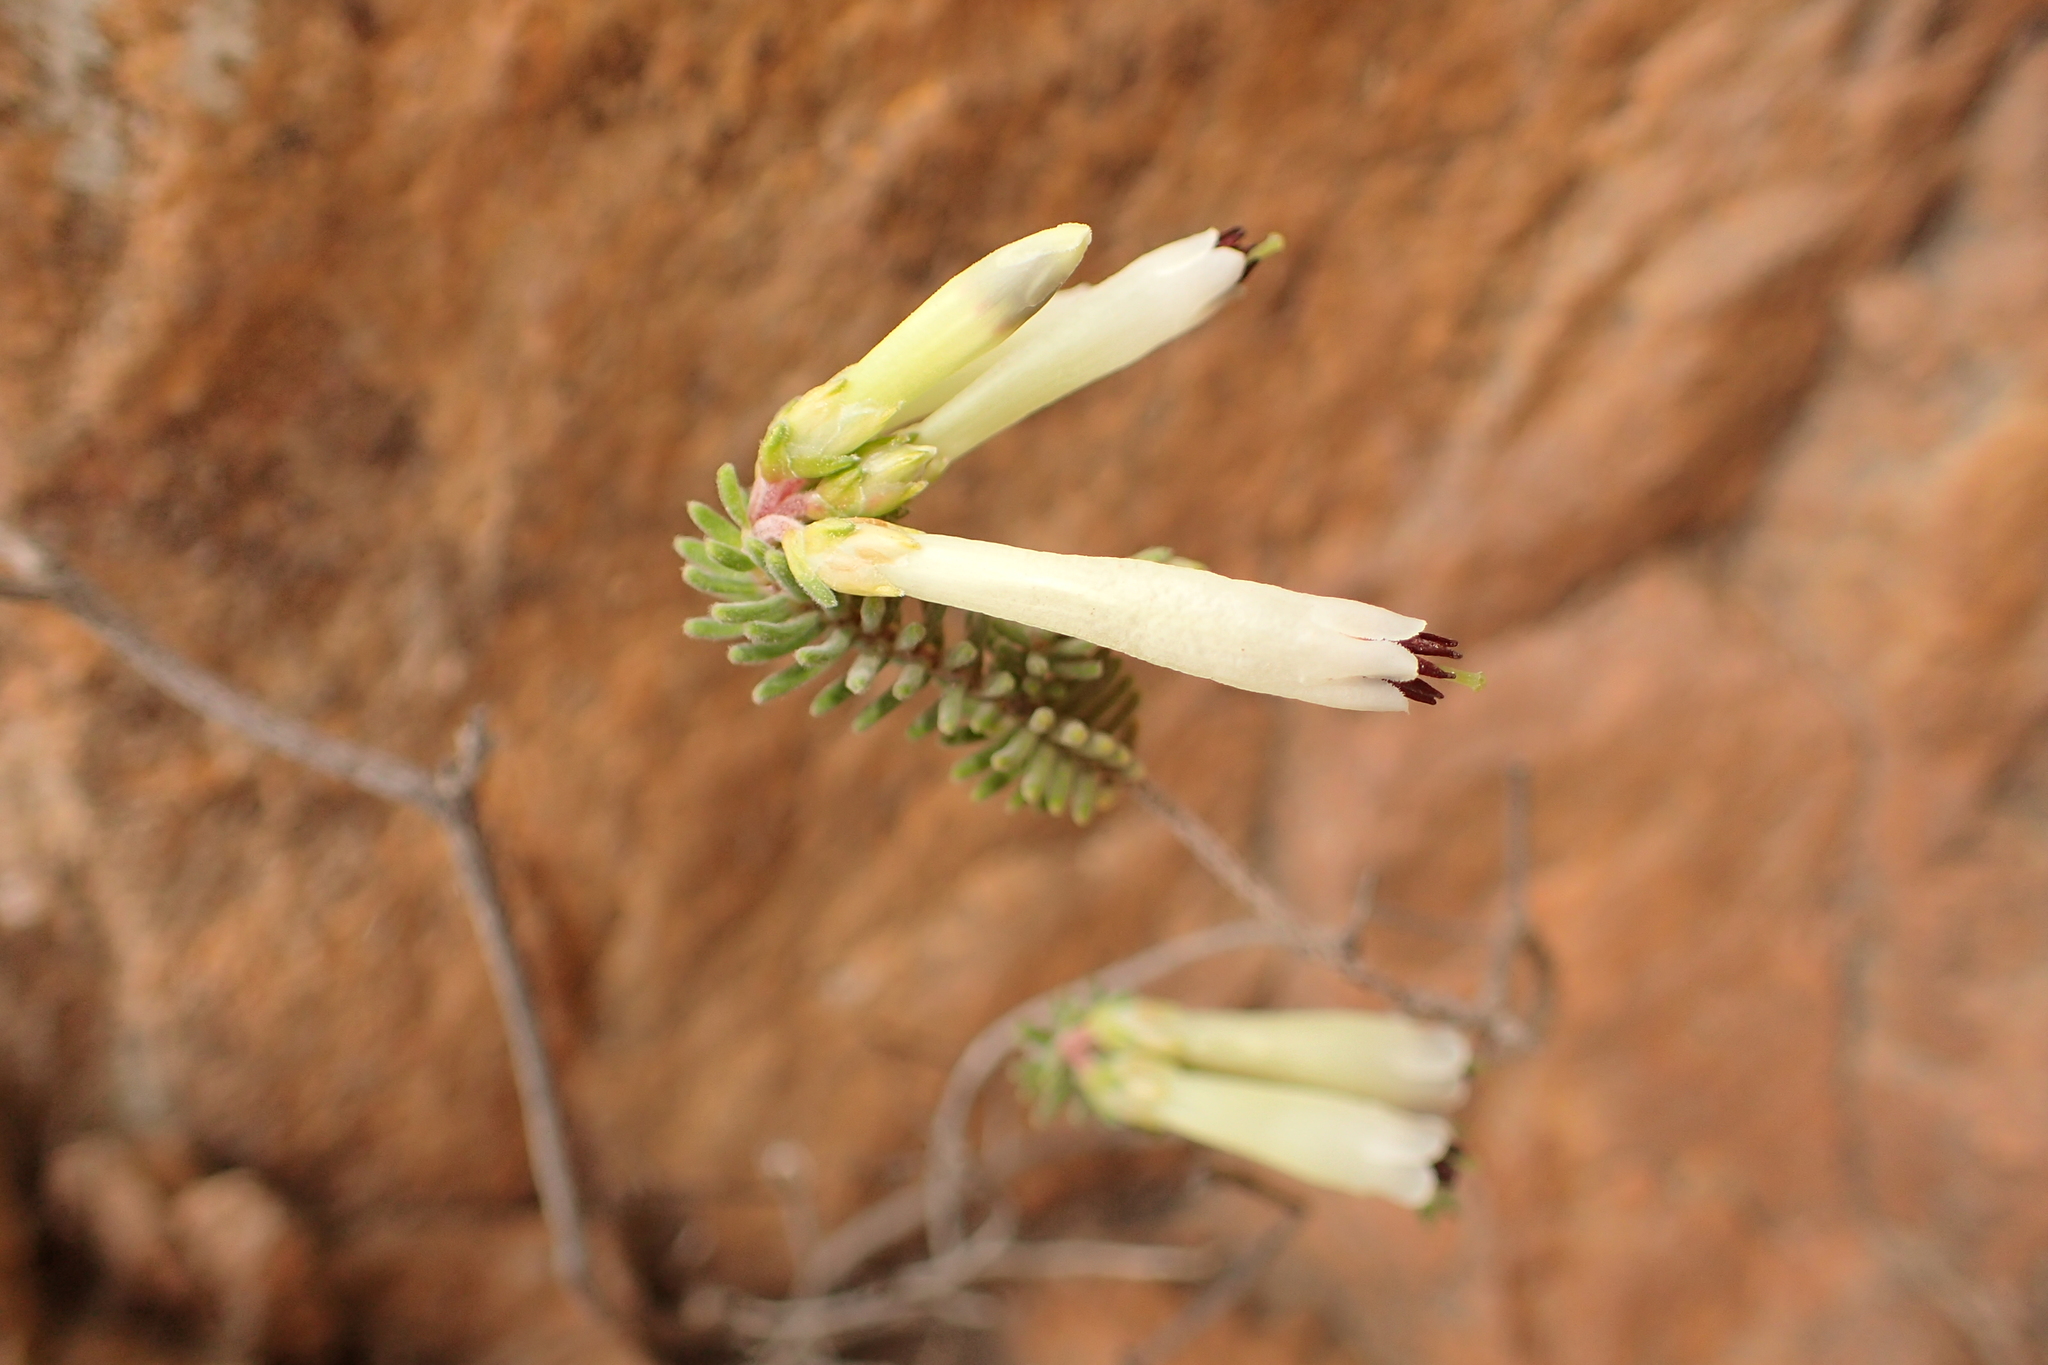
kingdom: Plantae
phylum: Tracheophyta
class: Magnoliopsida
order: Ericales
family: Ericaceae
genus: Erica
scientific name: Erica viridiflora
